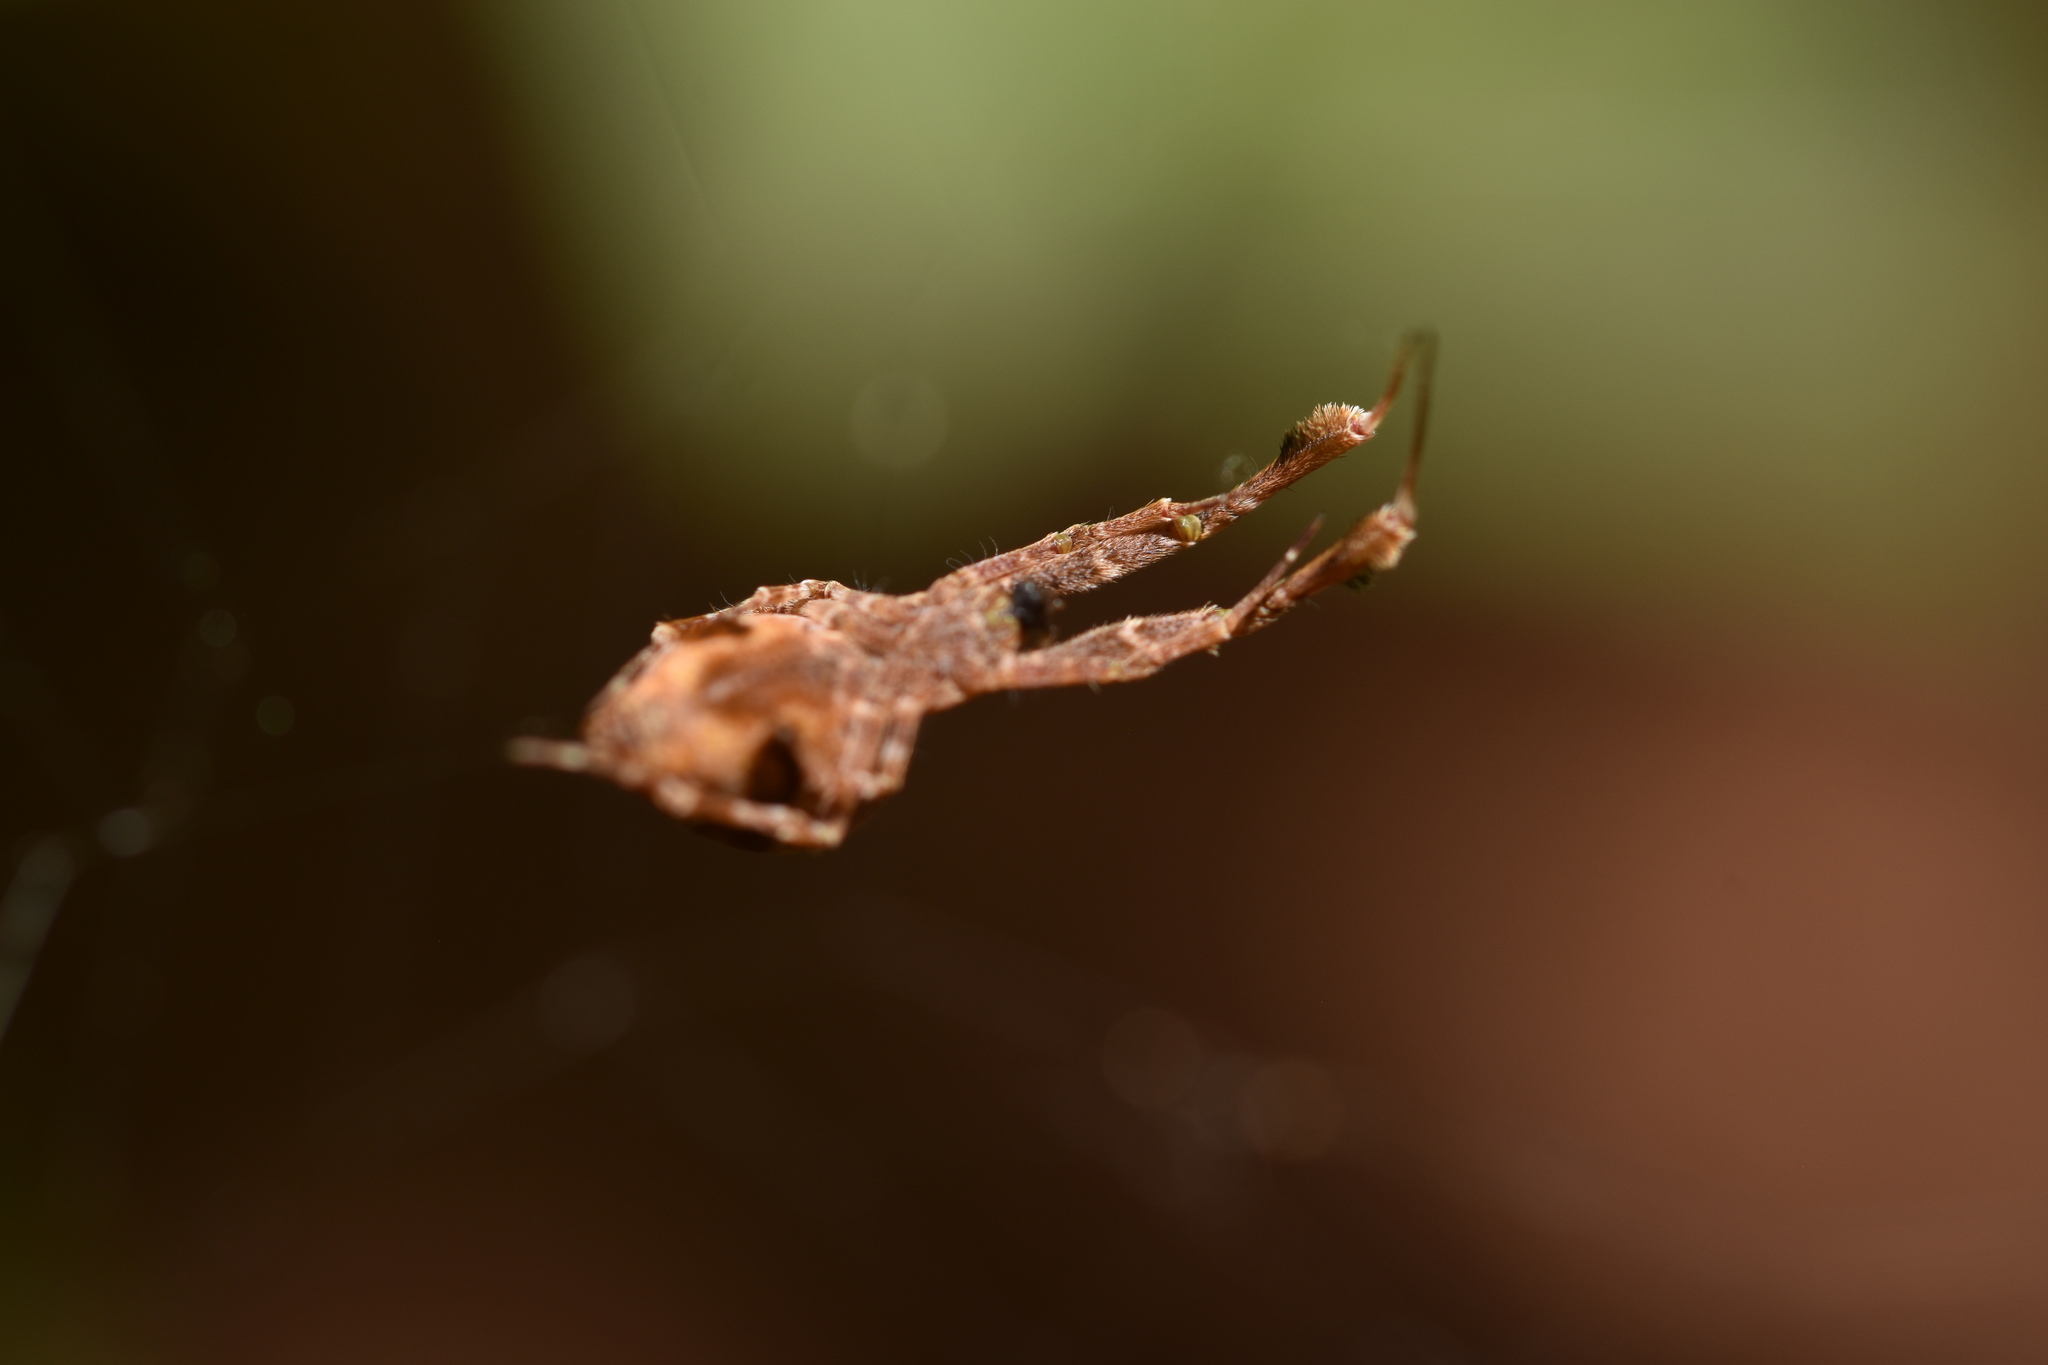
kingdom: Animalia
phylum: Arthropoda
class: Arachnida
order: Araneae
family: Uloboridae
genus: Uloborus
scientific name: Uloborus glomosus
